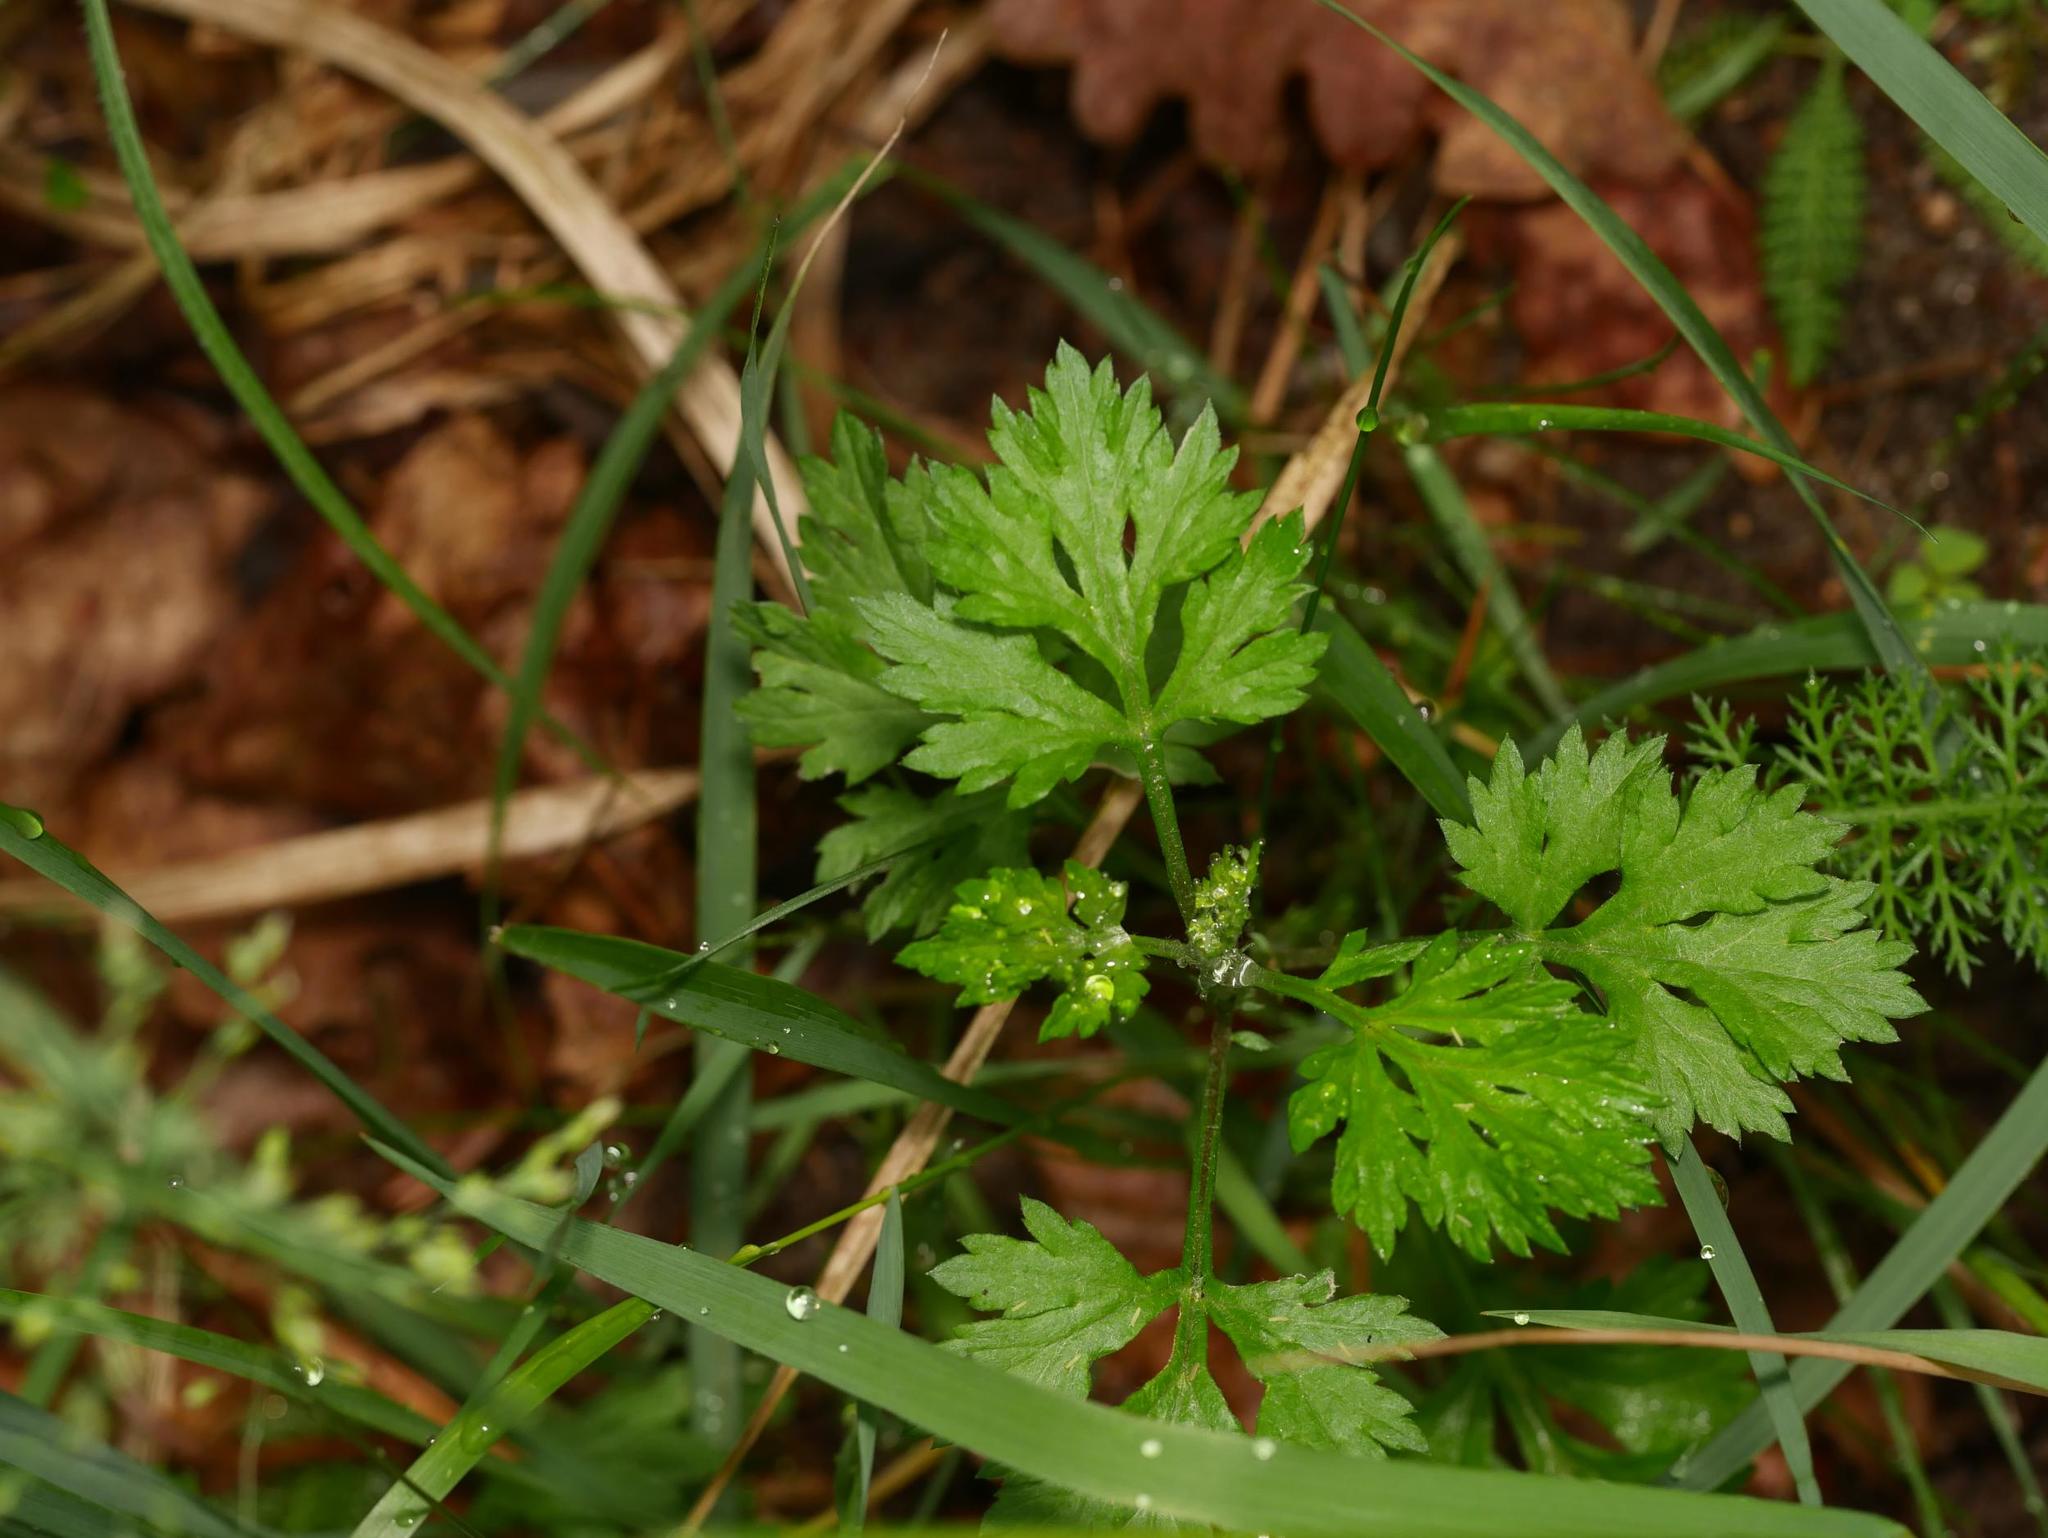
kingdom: Plantae
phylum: Tracheophyta
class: Magnoliopsida
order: Asterales
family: Asteraceae
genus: Artemisia
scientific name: Artemisia vulgaris
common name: Mugwort
